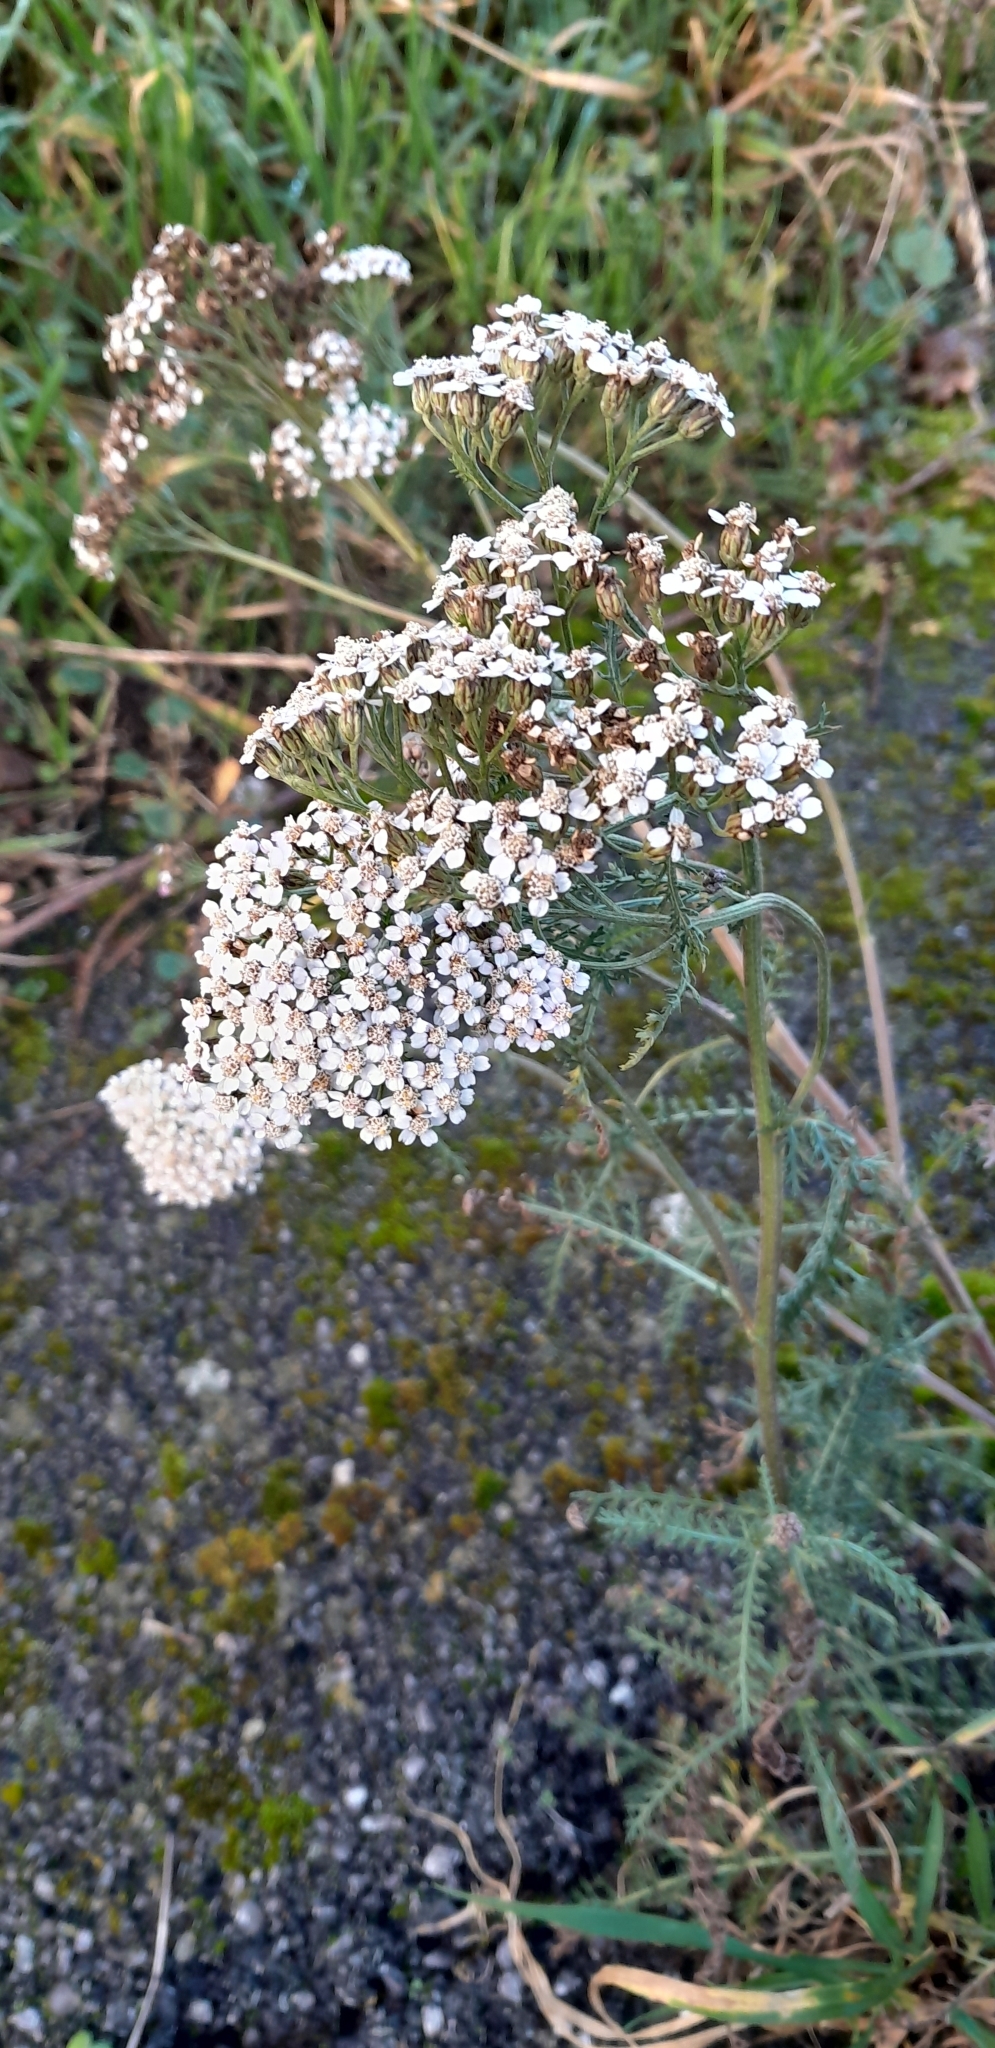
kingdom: Plantae
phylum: Tracheophyta
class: Magnoliopsida
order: Asterales
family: Asteraceae
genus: Achillea
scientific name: Achillea millefolium
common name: Yarrow
